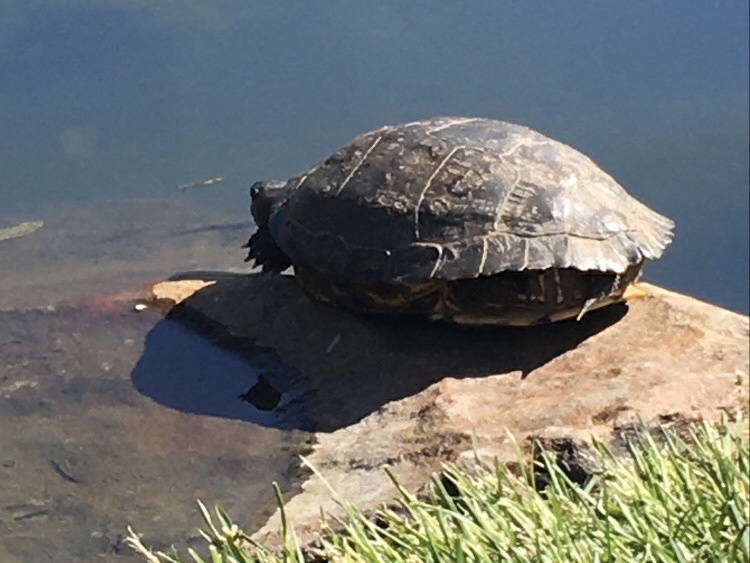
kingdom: Animalia
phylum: Chordata
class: Testudines
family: Emydidae
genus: Trachemys
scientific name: Trachemys scripta
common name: Slider
